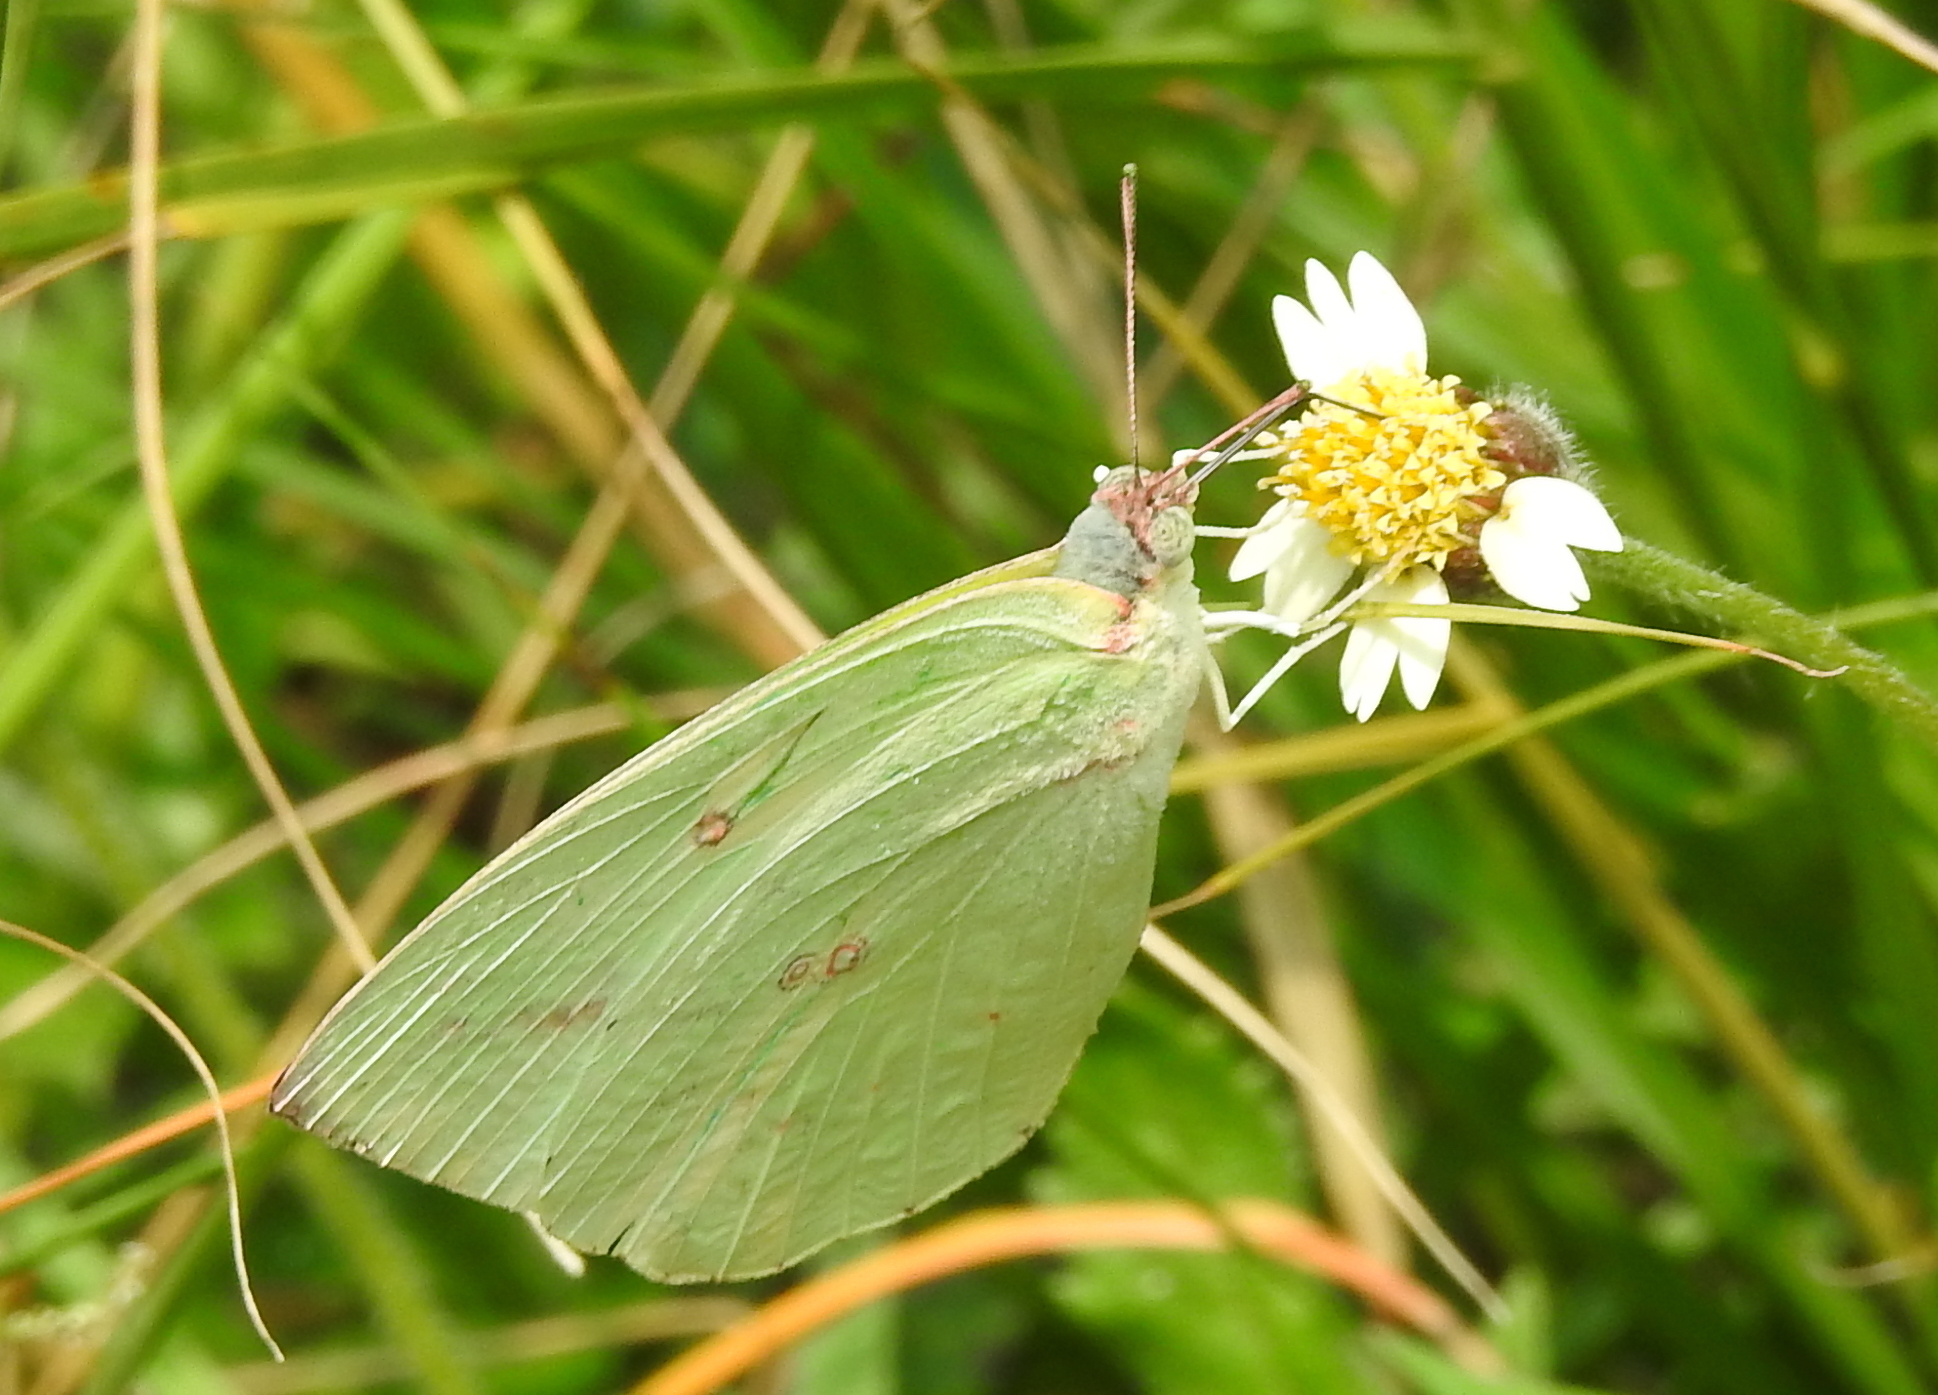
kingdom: Animalia
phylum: Arthropoda
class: Insecta
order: Lepidoptera
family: Pieridae
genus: Catopsilia
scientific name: Catopsilia pomona
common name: Common emigrant
